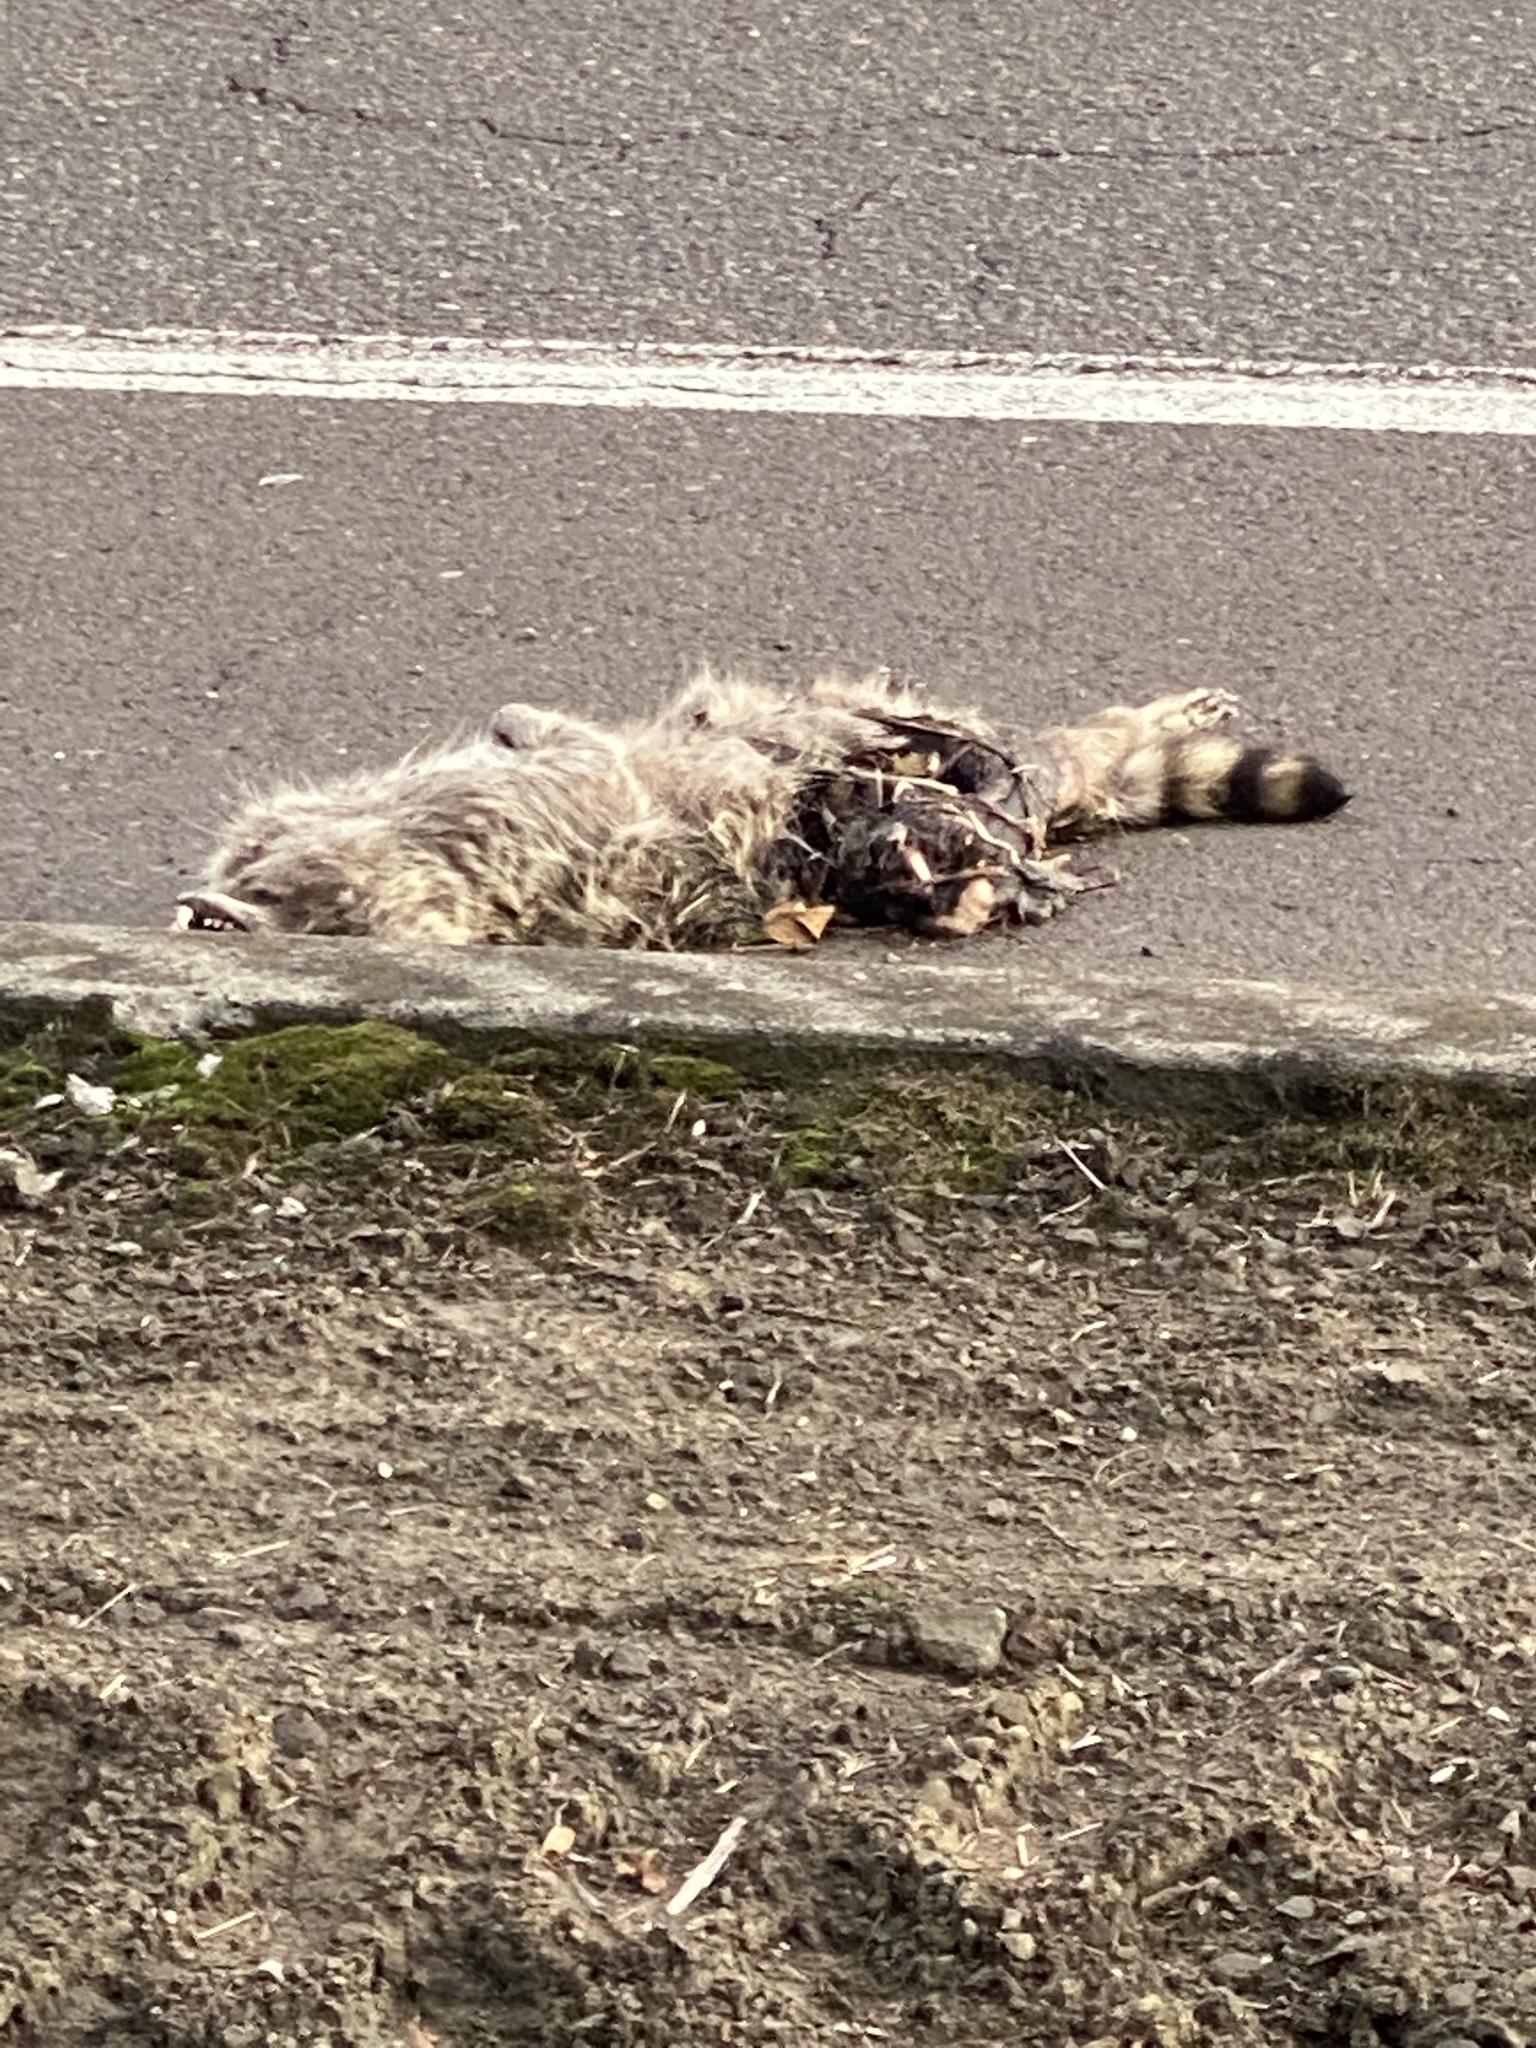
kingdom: Animalia
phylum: Chordata
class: Mammalia
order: Carnivora
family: Procyonidae
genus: Procyon
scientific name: Procyon lotor
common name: Raccoon
